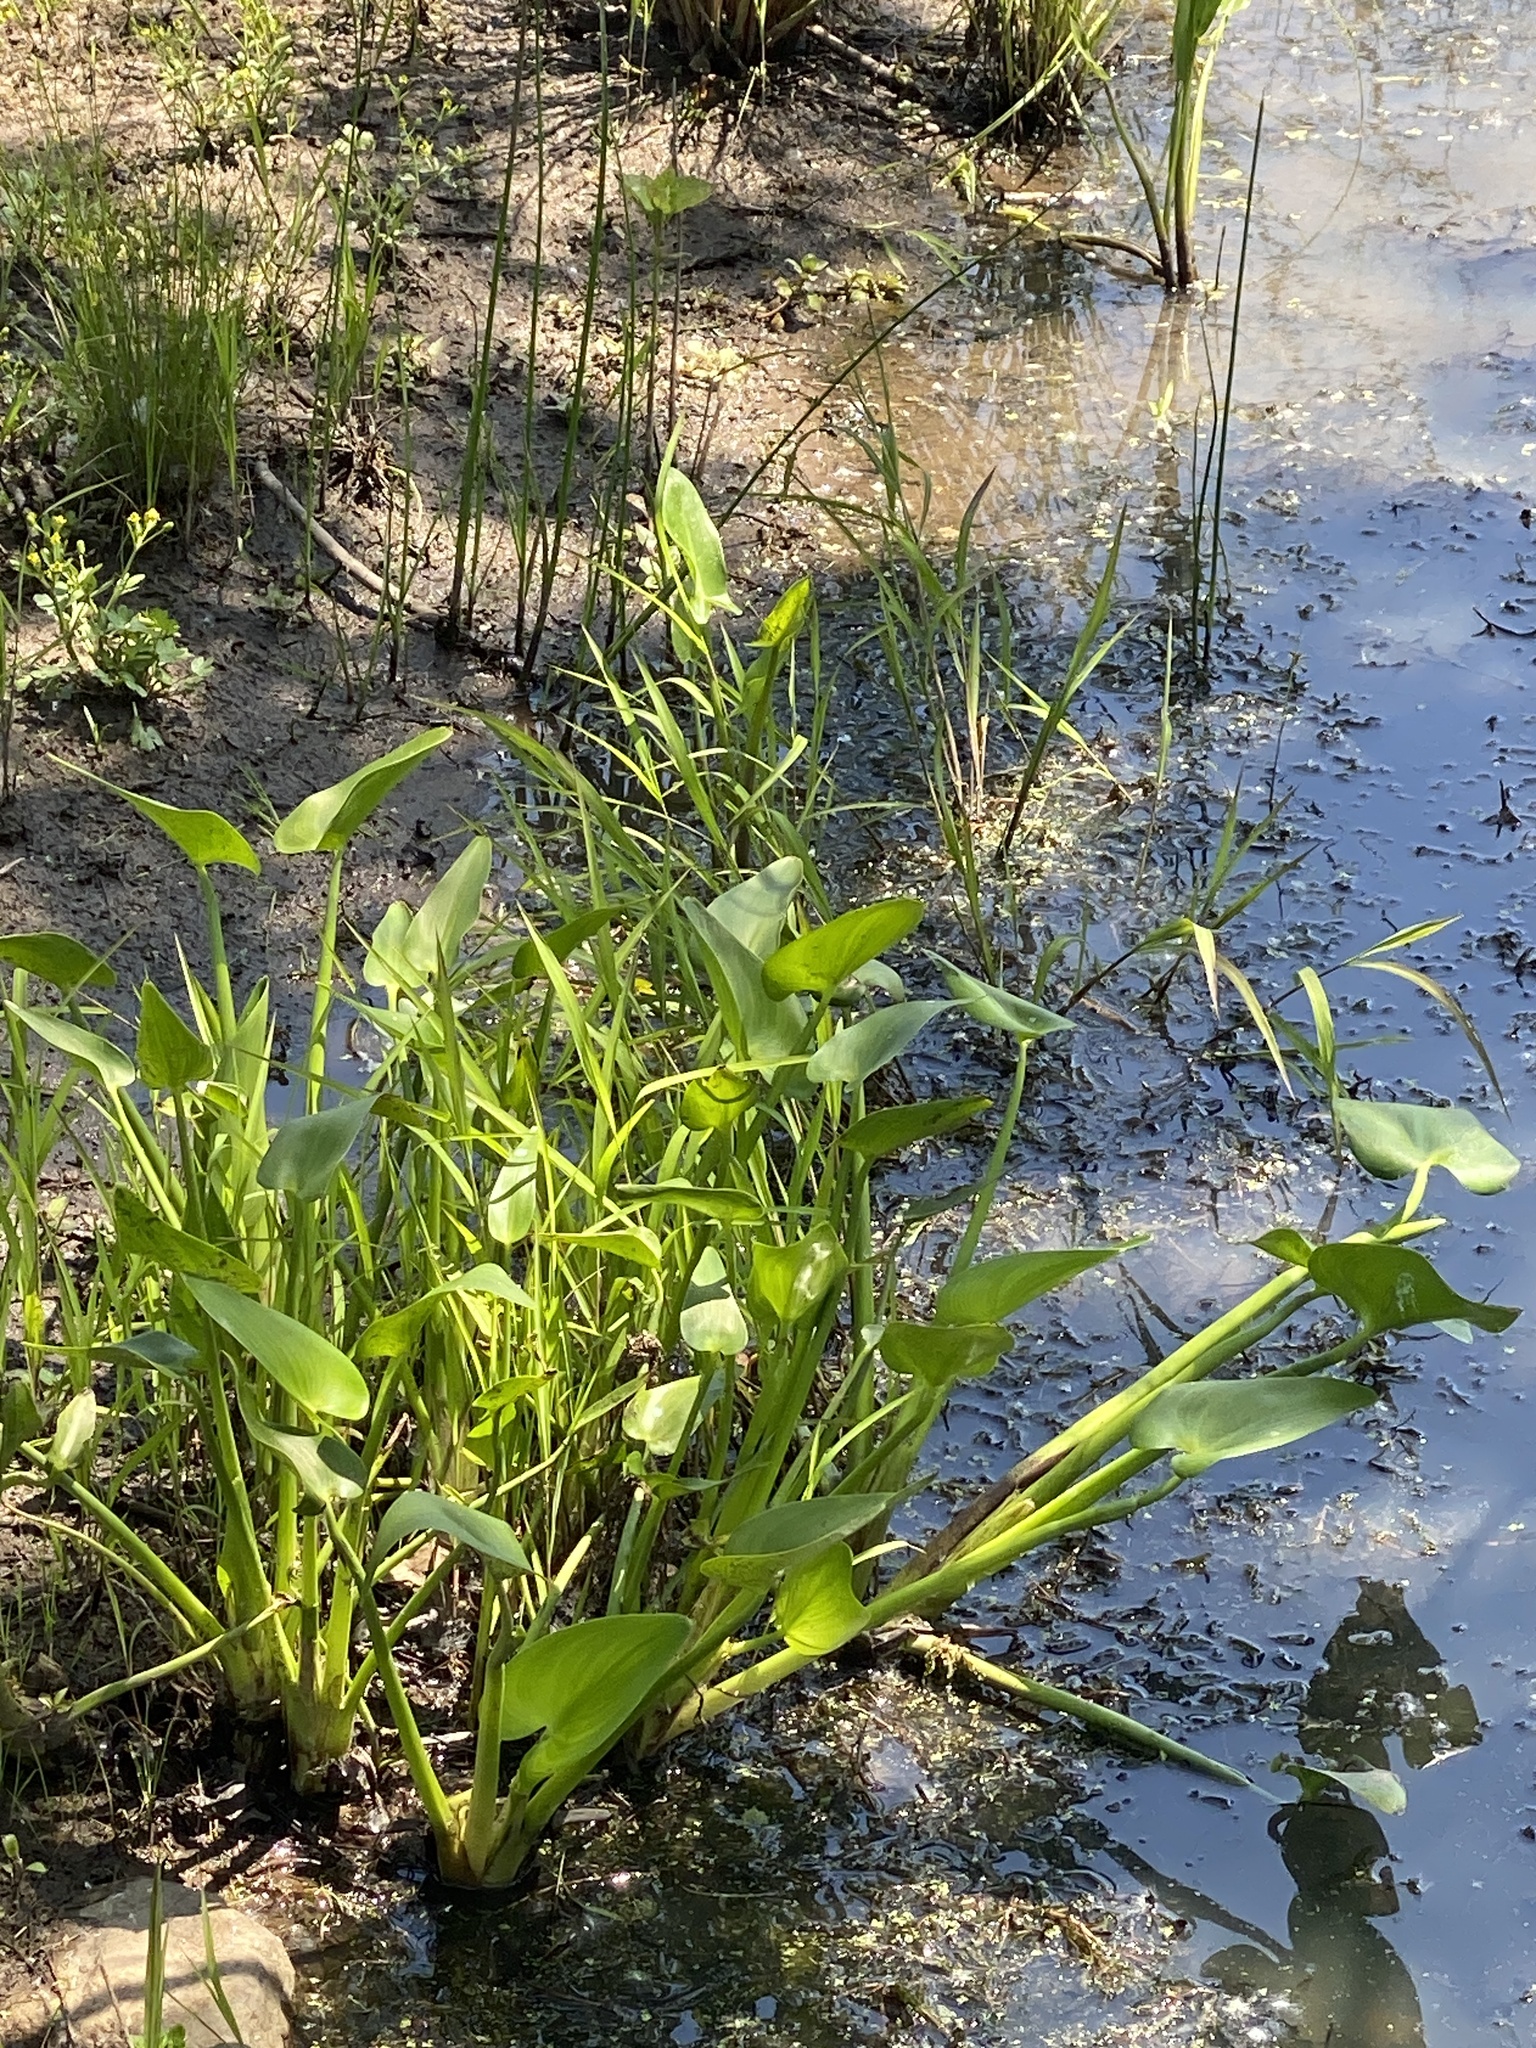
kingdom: Plantae
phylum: Tracheophyta
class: Liliopsida
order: Commelinales
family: Pontederiaceae
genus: Pontederia
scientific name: Pontederia cordata
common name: Pickerelweed
